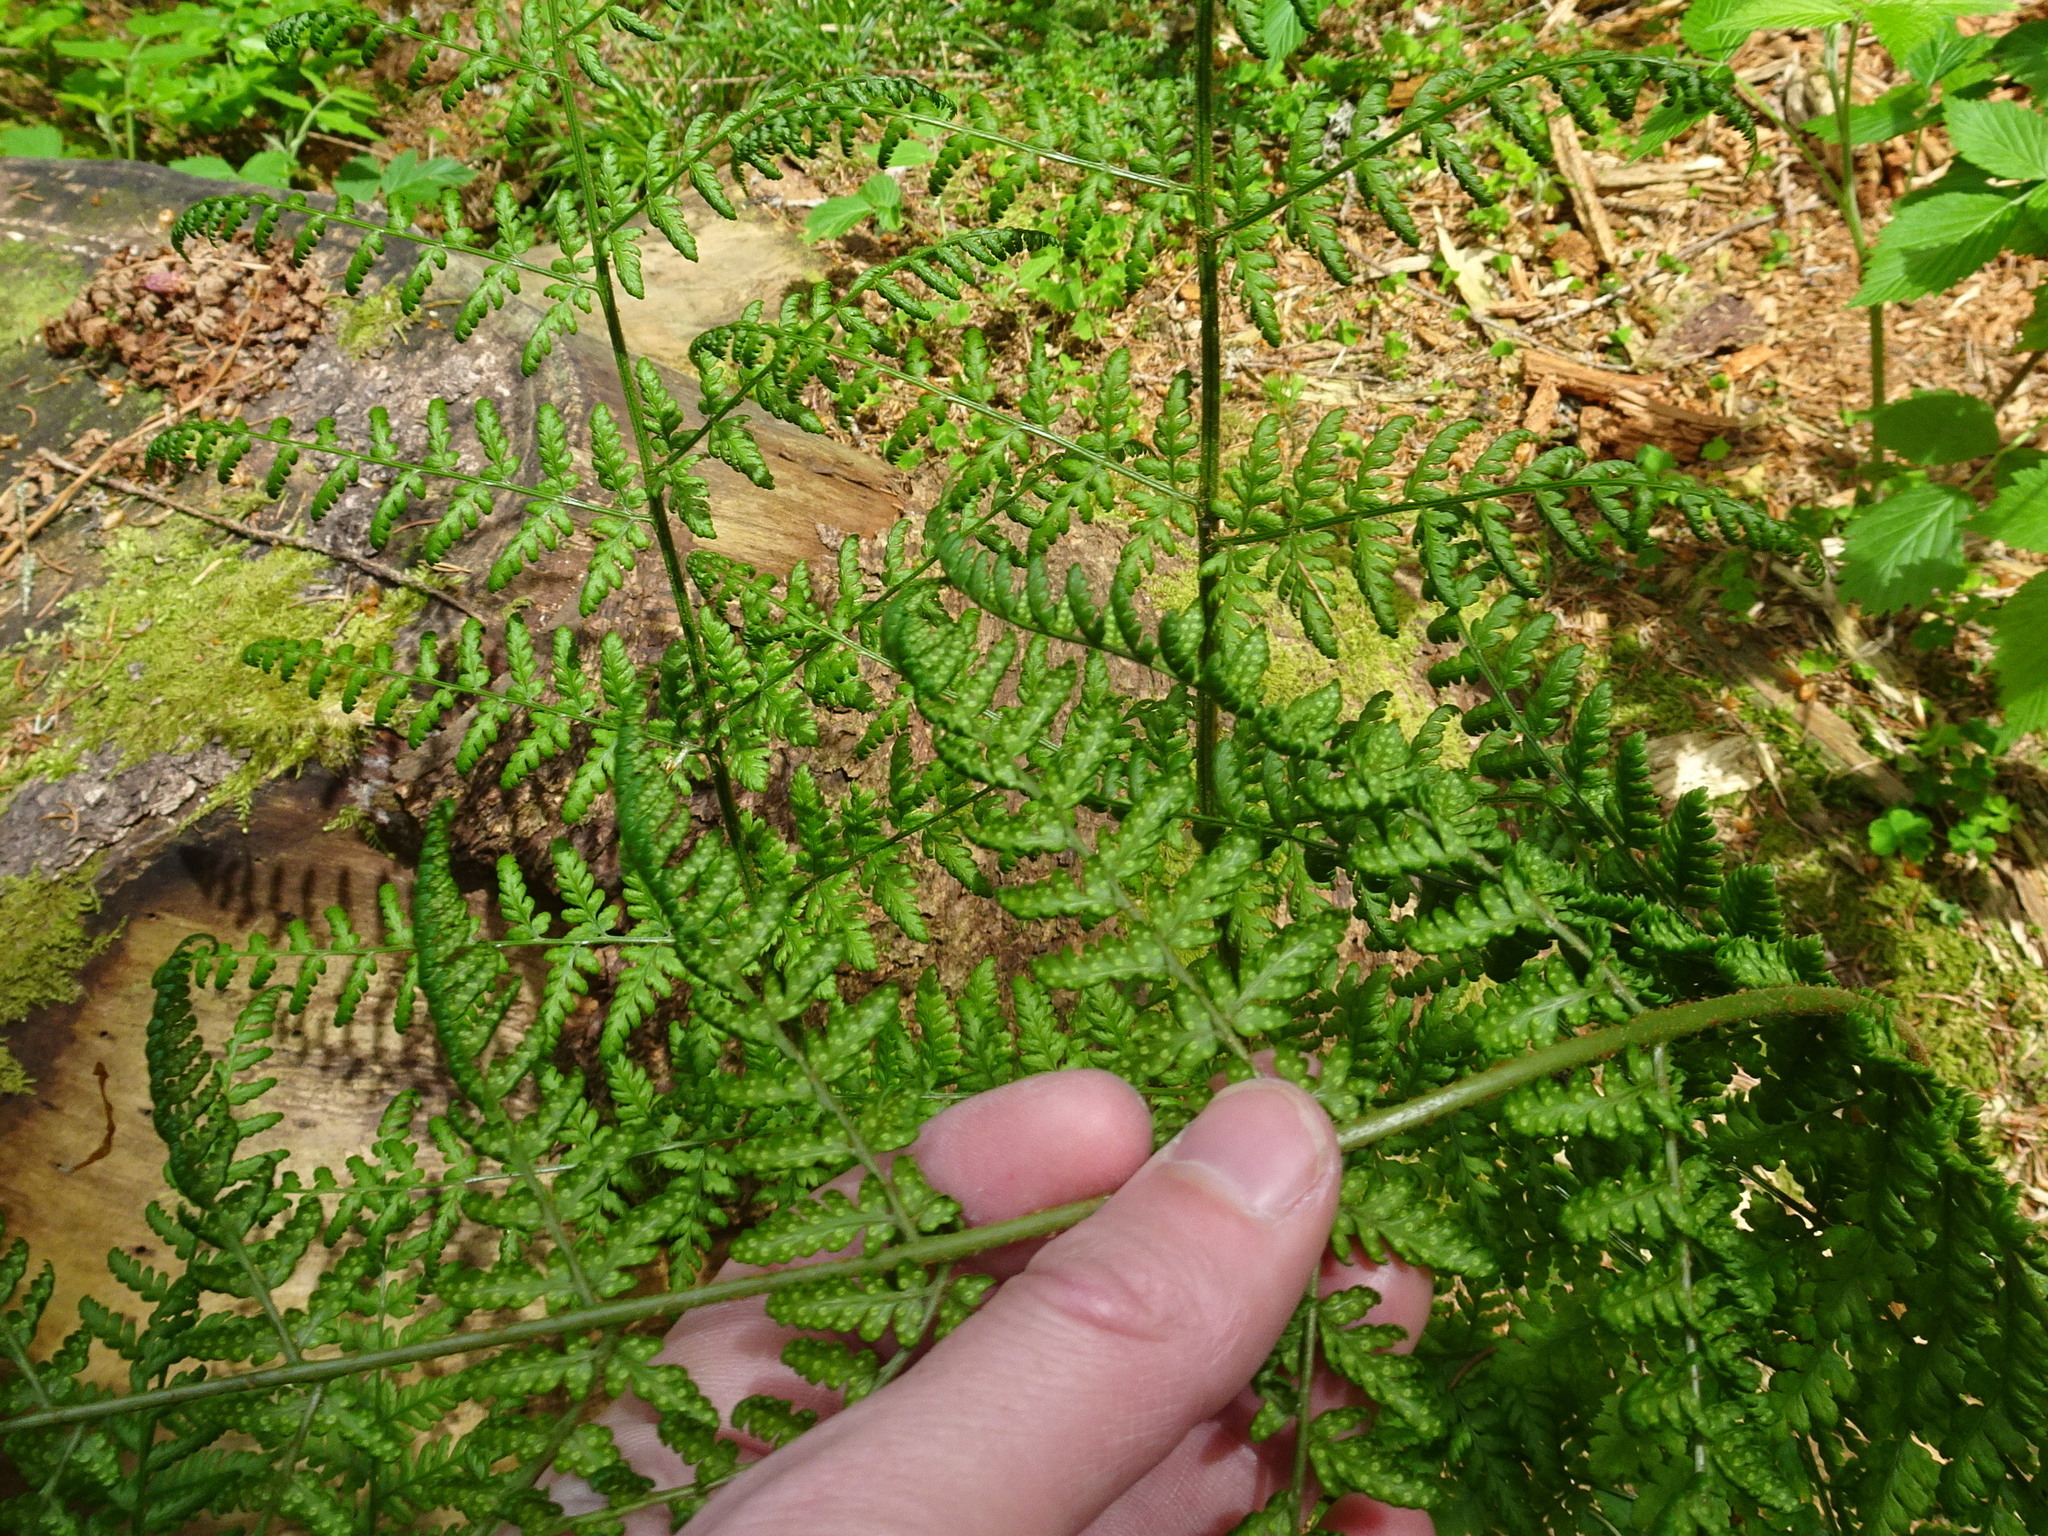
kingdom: Plantae
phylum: Tracheophyta
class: Polypodiopsida
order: Polypodiales
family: Dryopteridaceae
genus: Dryopteris
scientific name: Dryopteris dilatata
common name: Broad buckler-fern
